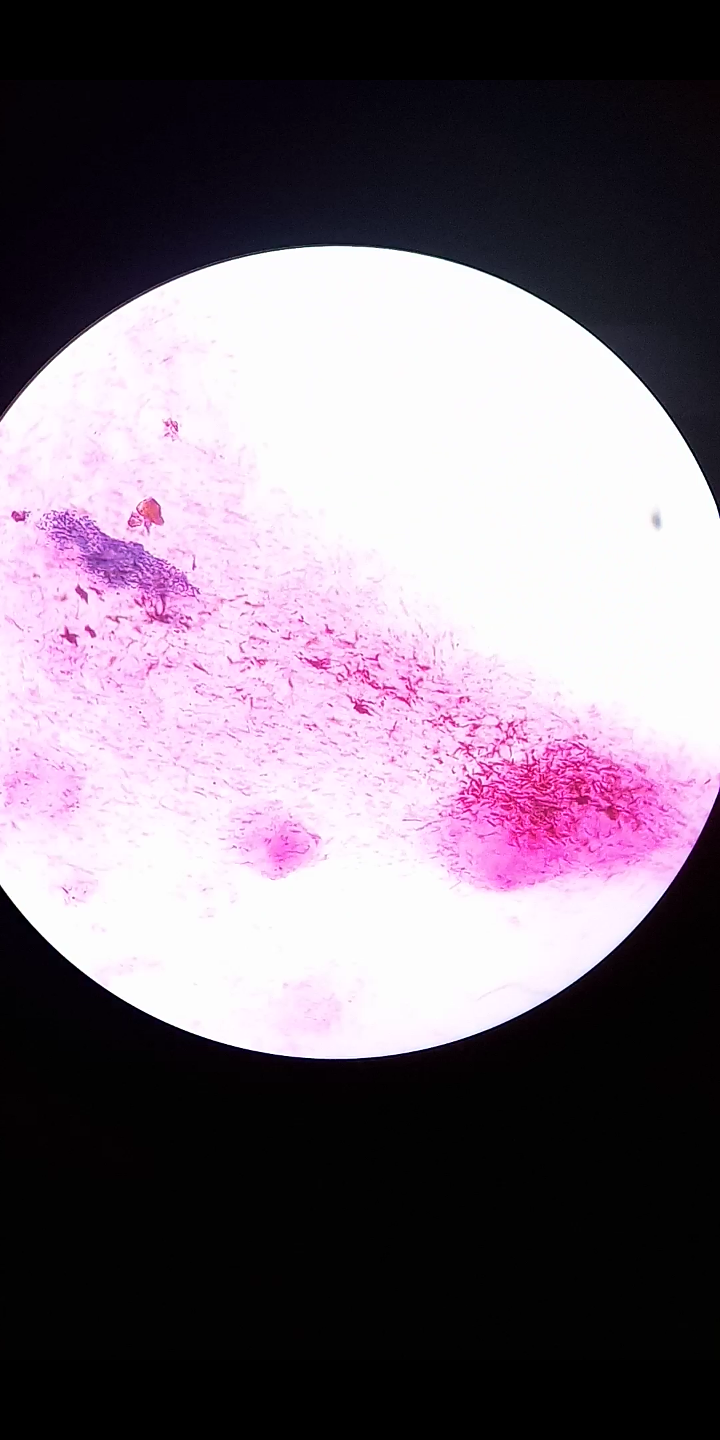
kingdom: Bacteria
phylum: Proteobacteria
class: Gammaproteobacteria
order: Enterobacterales
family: Enterobacteriaceae
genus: Escherichia
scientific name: Escherichia coli
